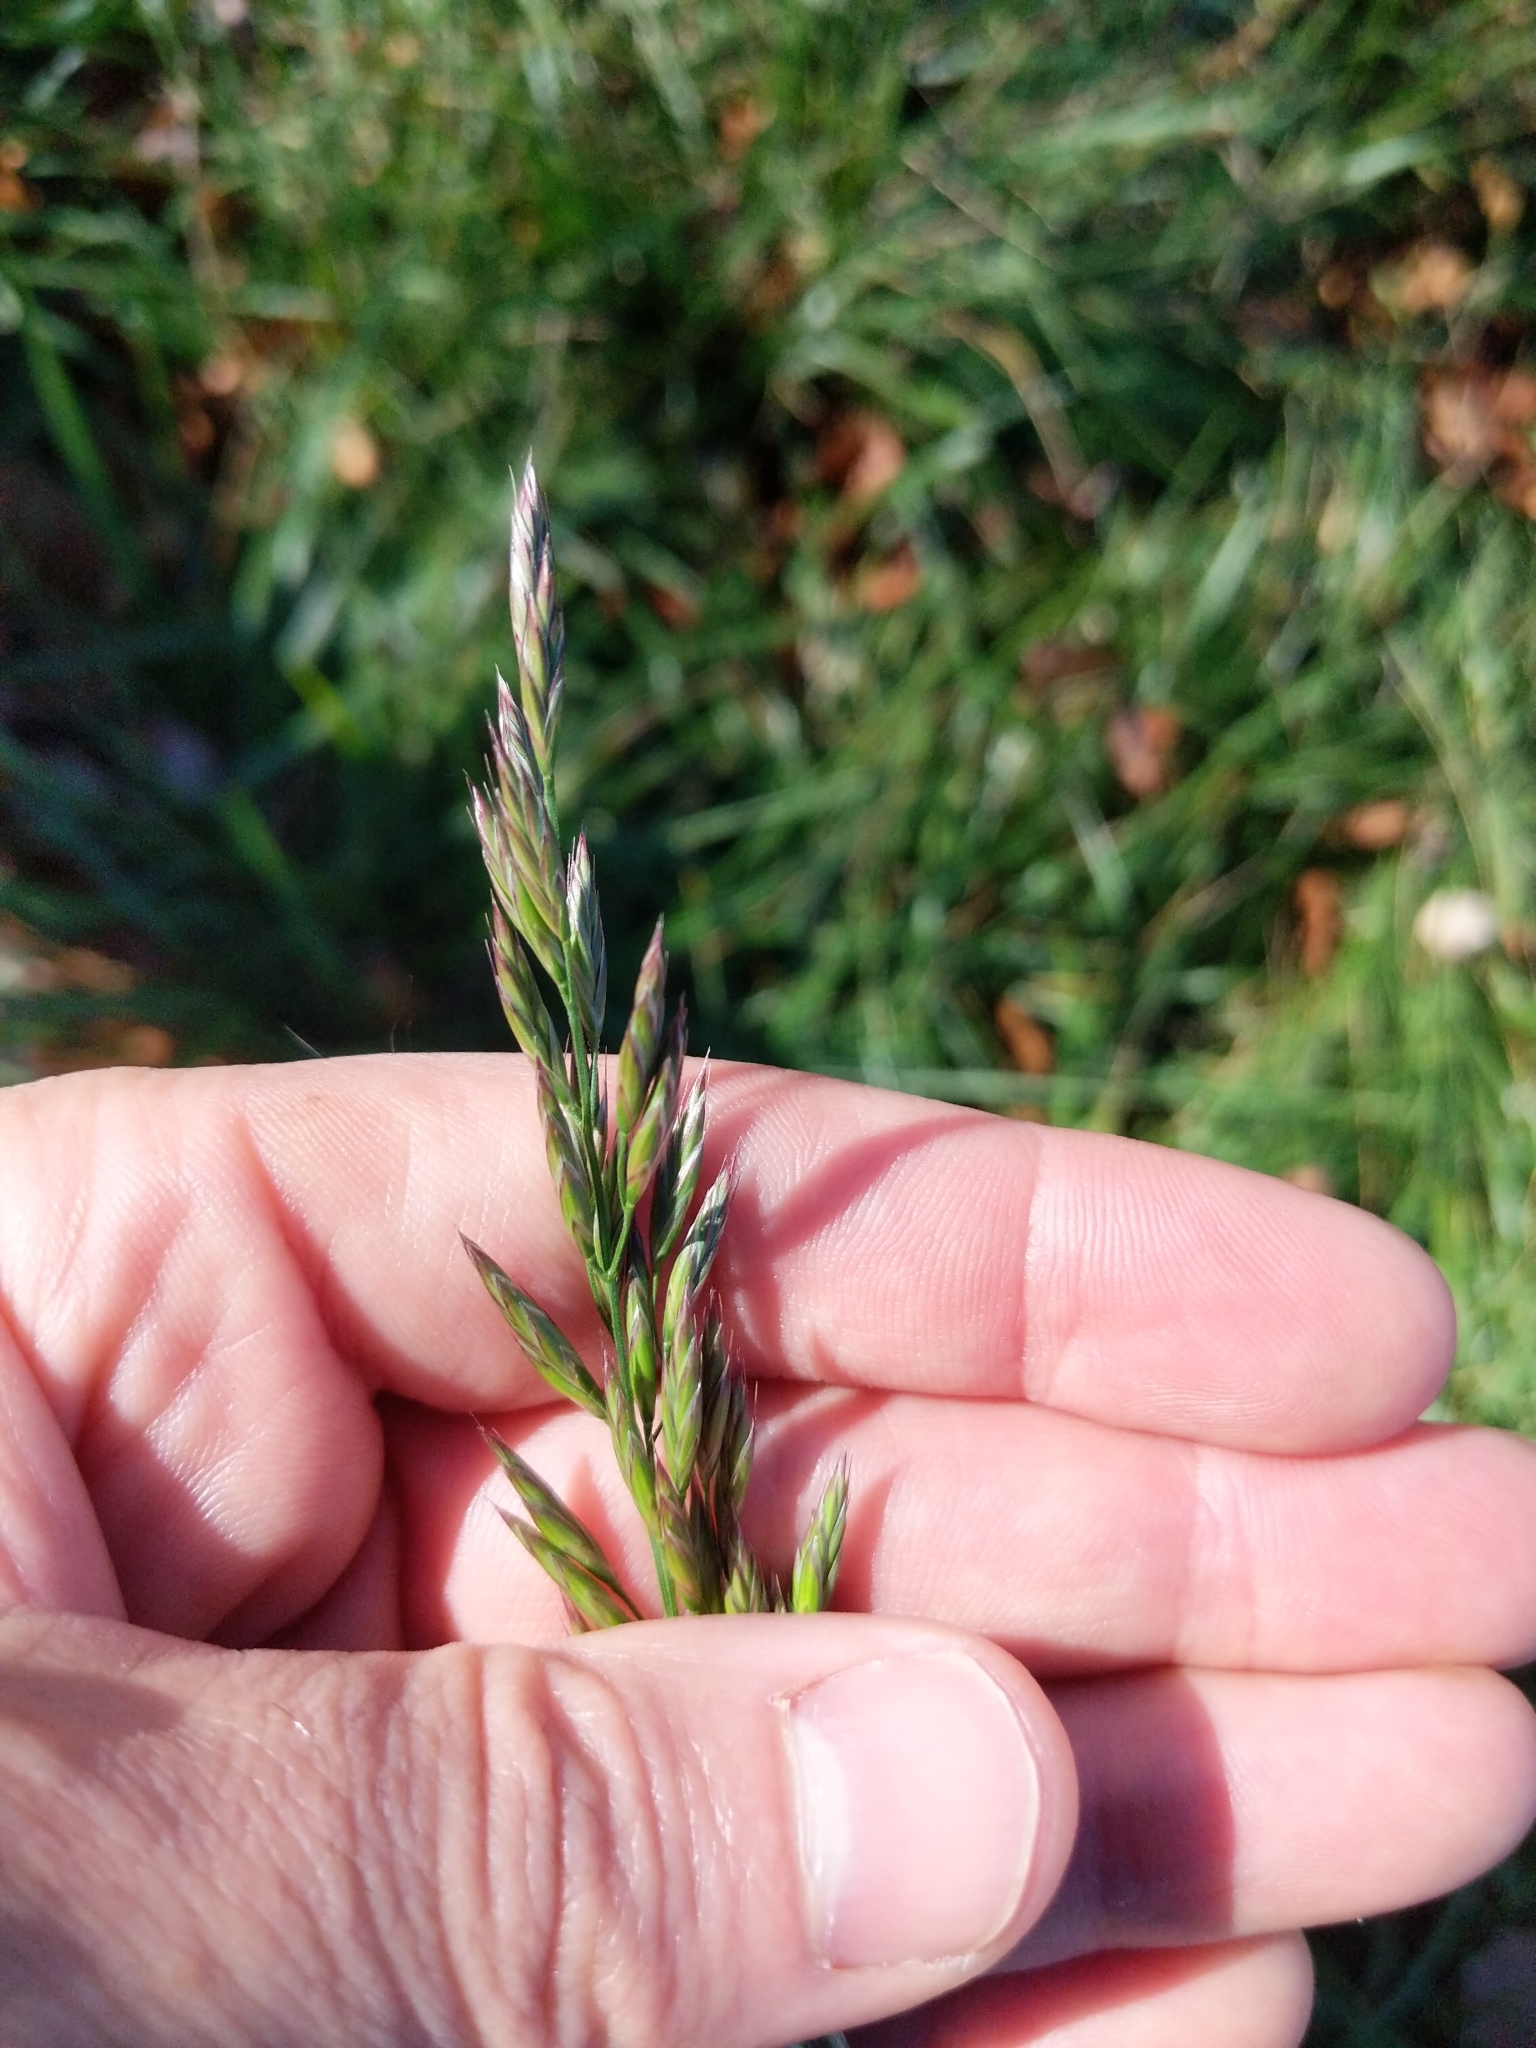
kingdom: Plantae
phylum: Tracheophyta
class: Liliopsida
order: Poales
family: Poaceae
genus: Lolium
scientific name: Lolium arundinaceum
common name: Reed fescue
